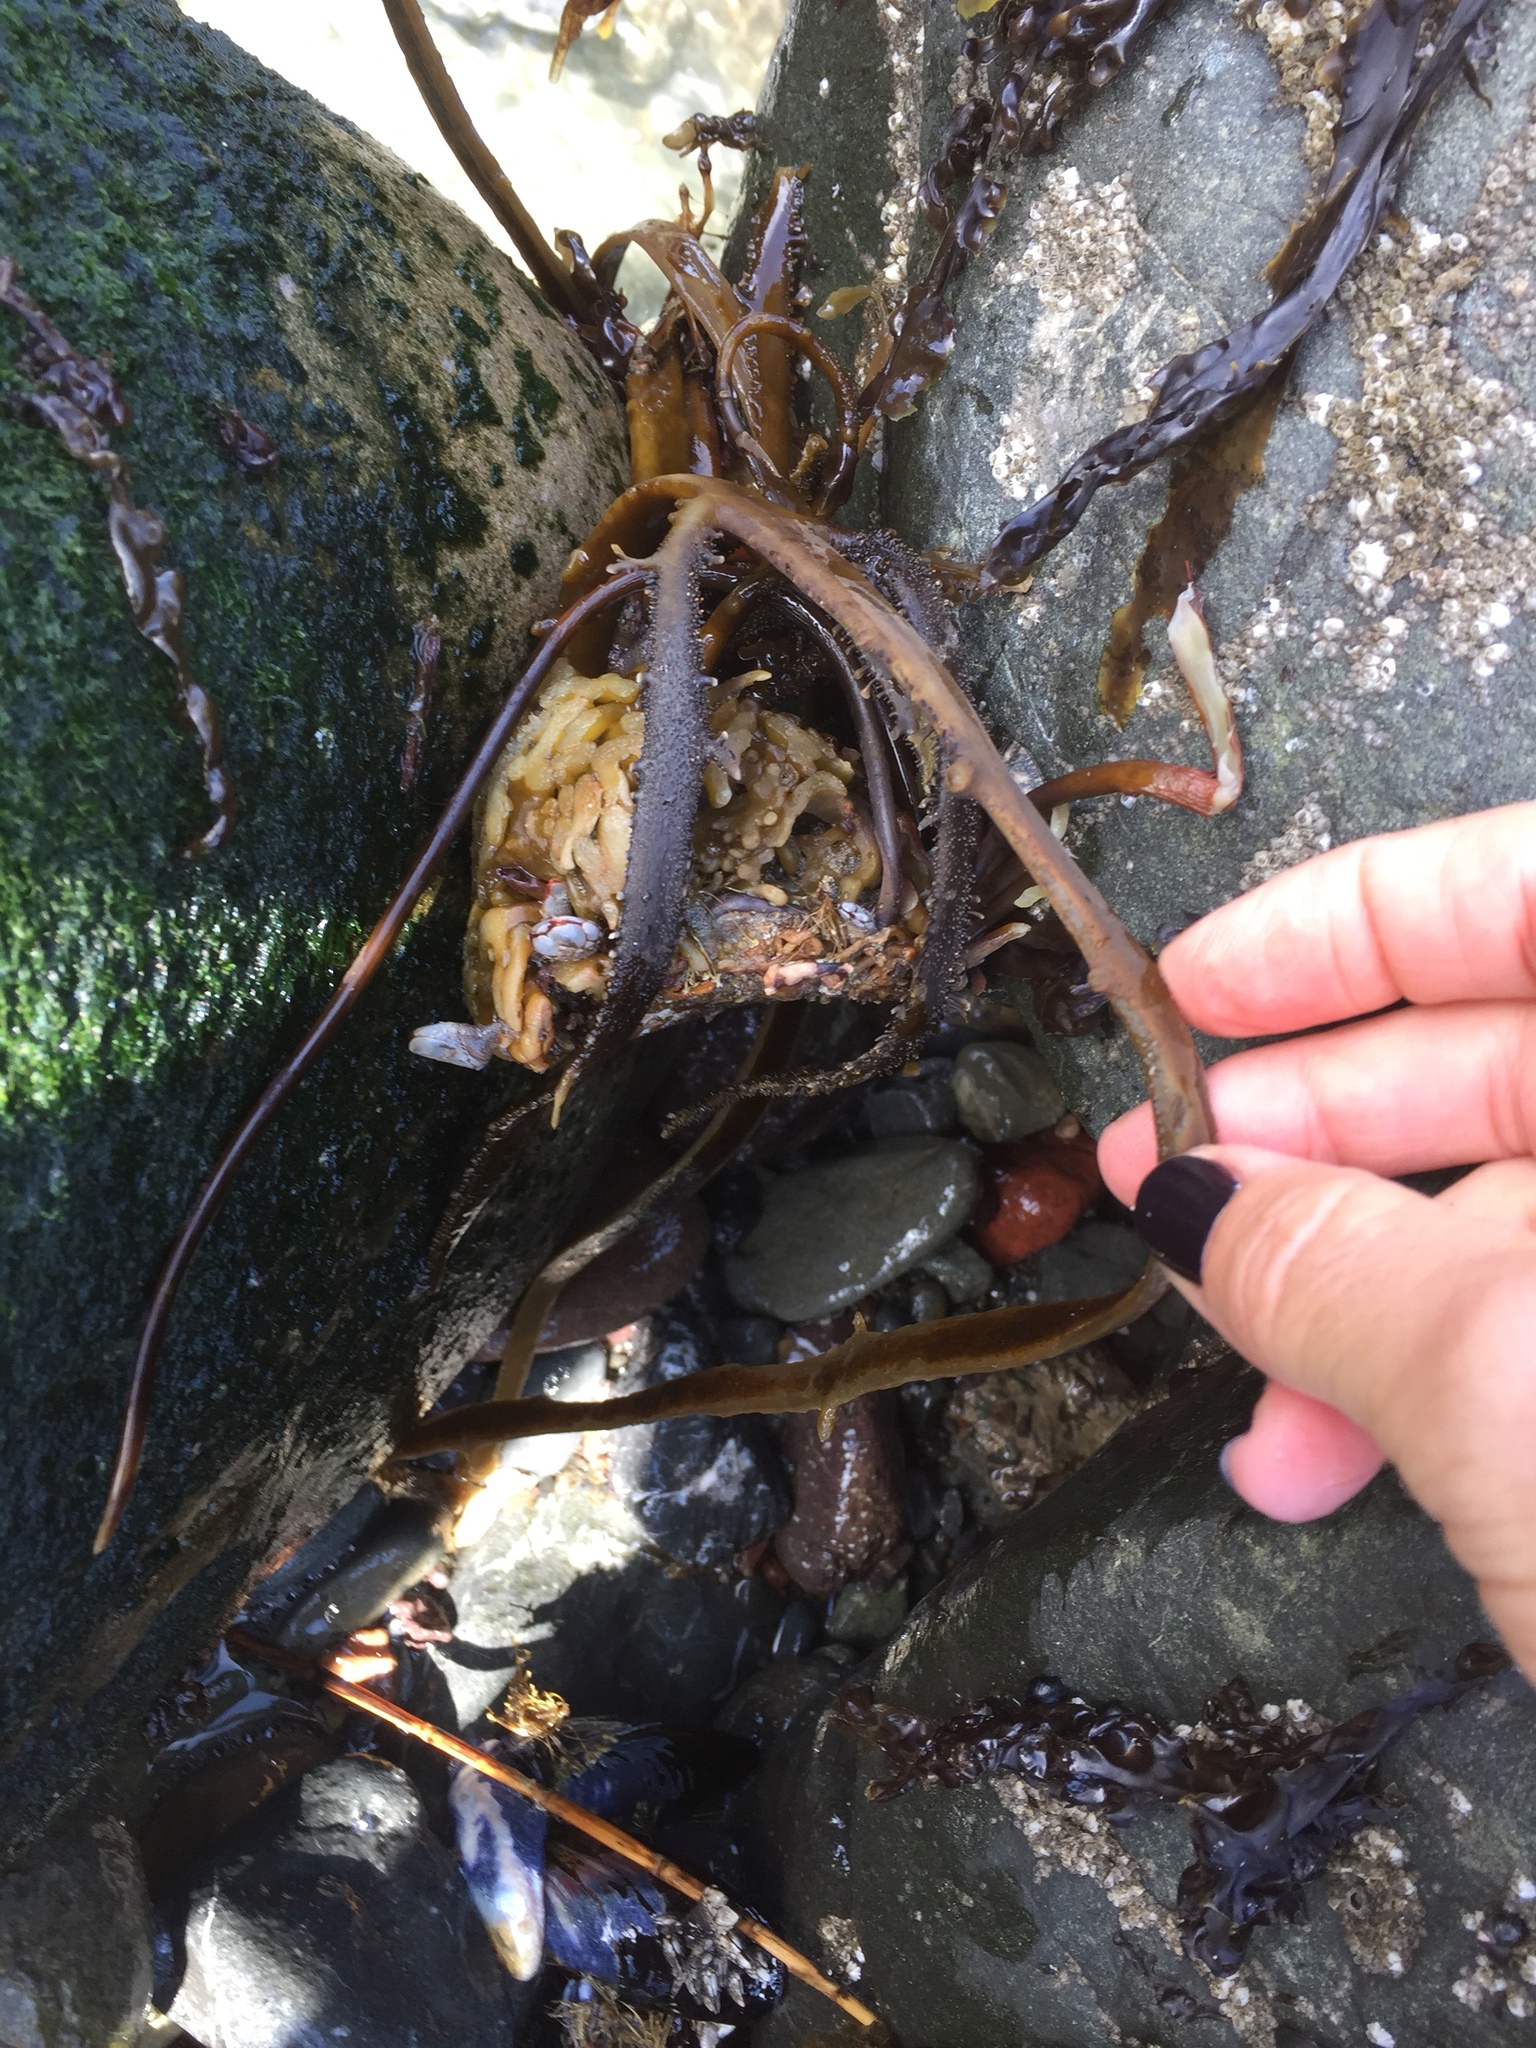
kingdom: Chromista
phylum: Ochrophyta
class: Phaeophyceae
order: Laminariales
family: Lessoniaceae
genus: Egregia
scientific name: Egregia menziesii
